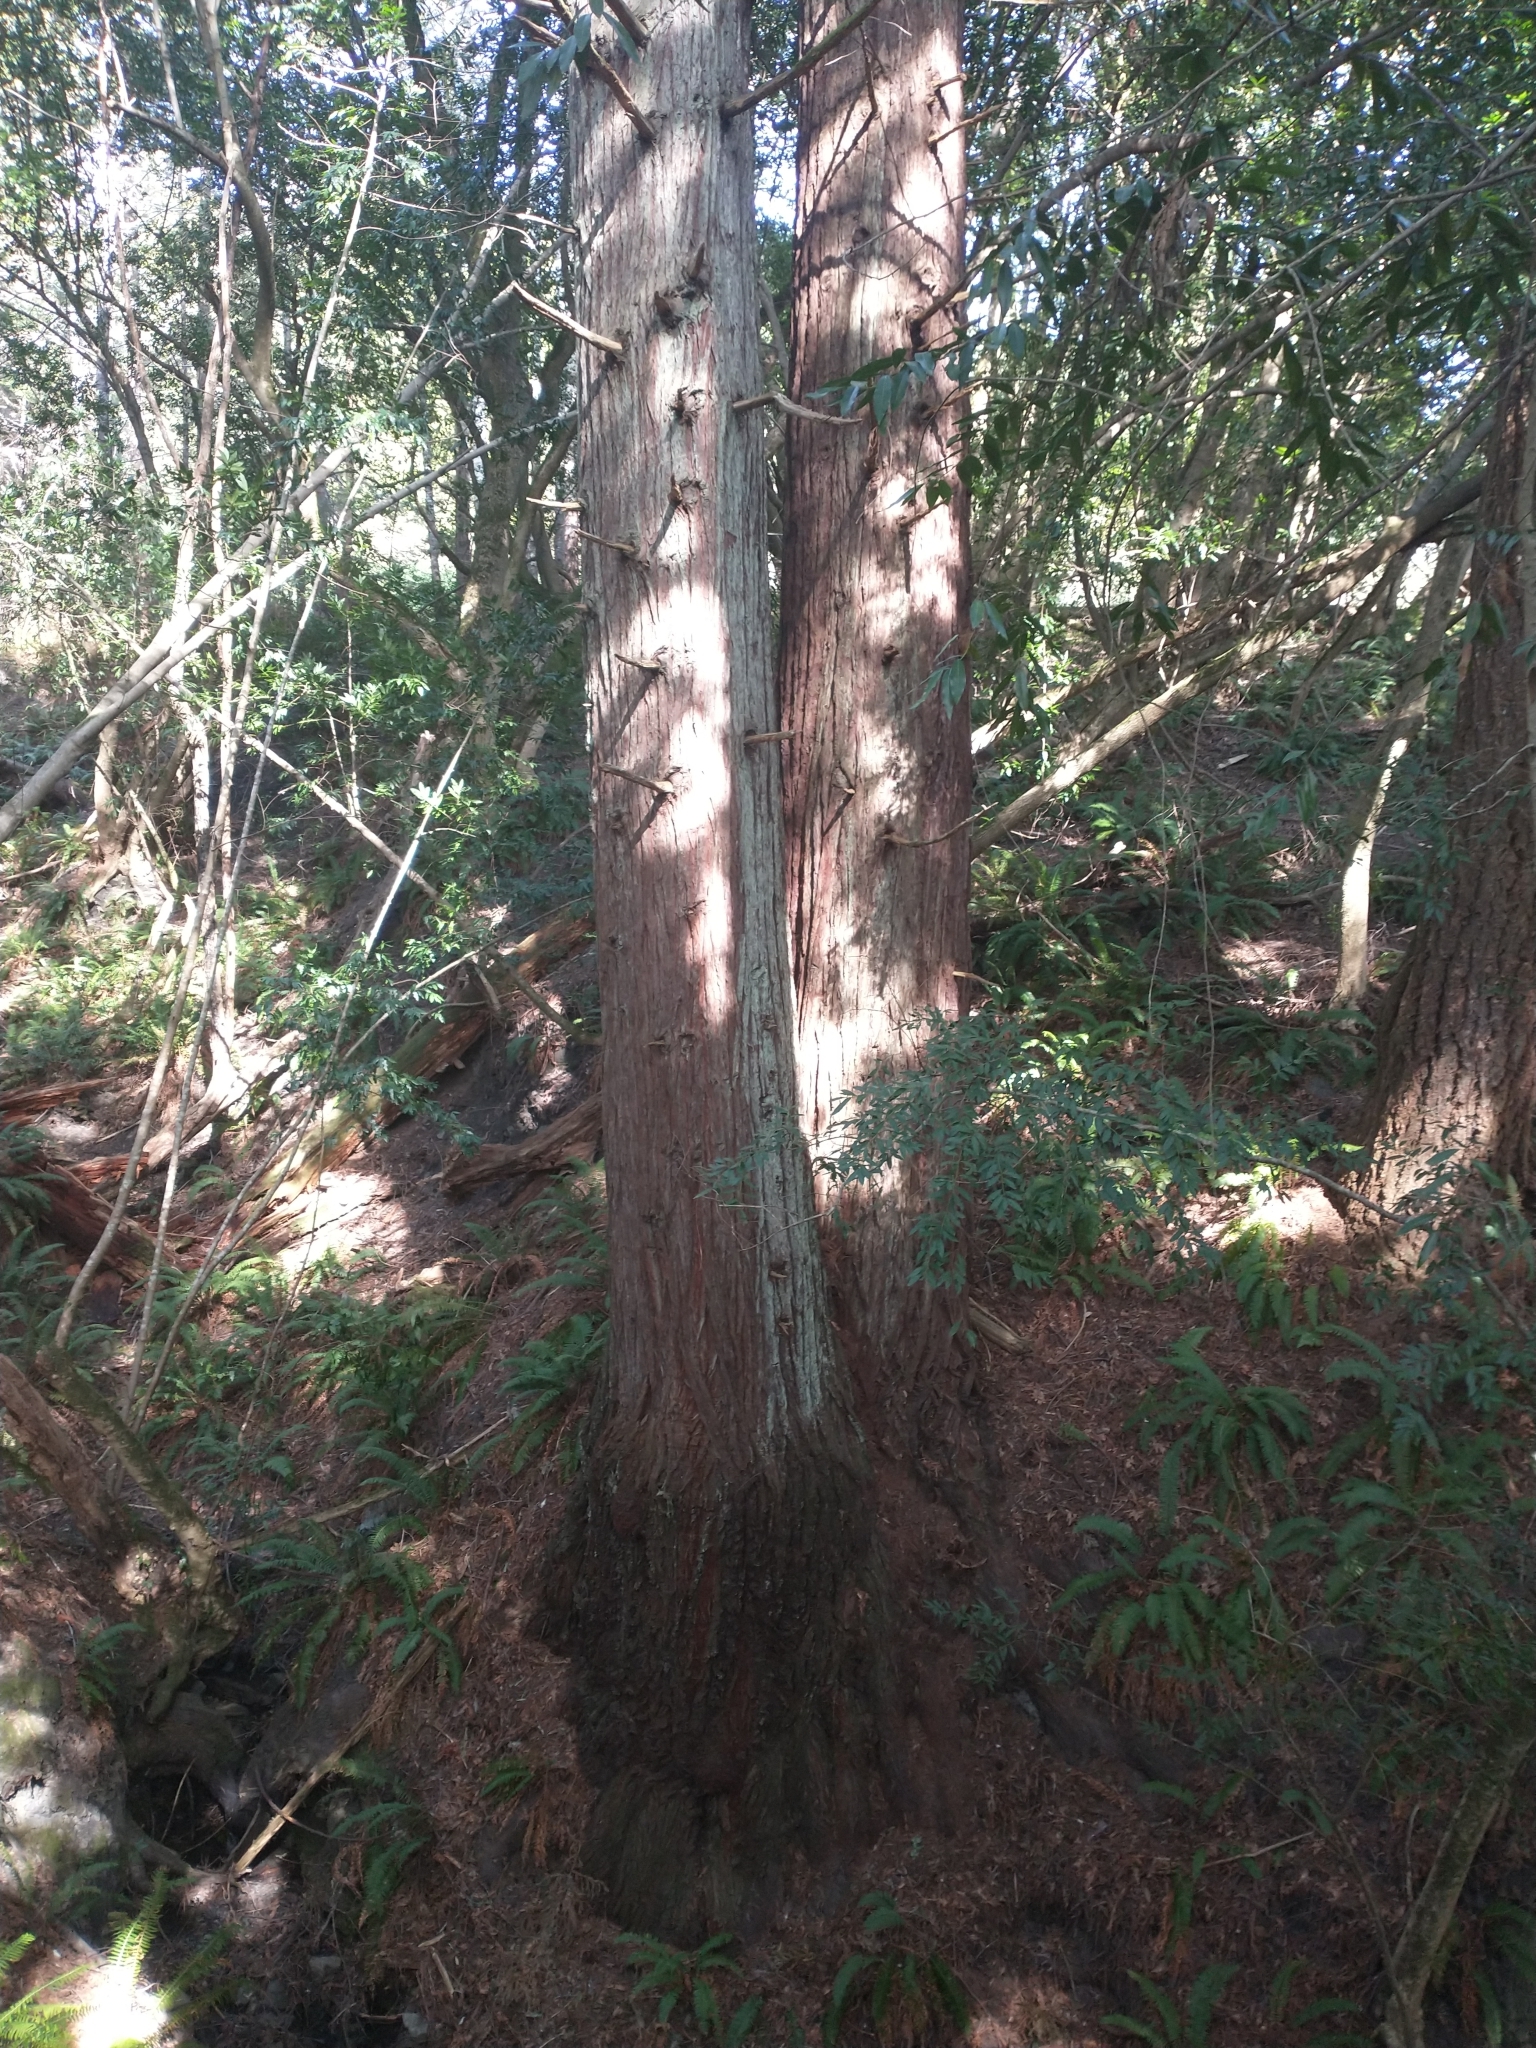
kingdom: Plantae
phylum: Tracheophyta
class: Pinopsida
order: Pinales
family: Cupressaceae
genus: Sequoia
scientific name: Sequoia sempervirens
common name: Coast redwood
